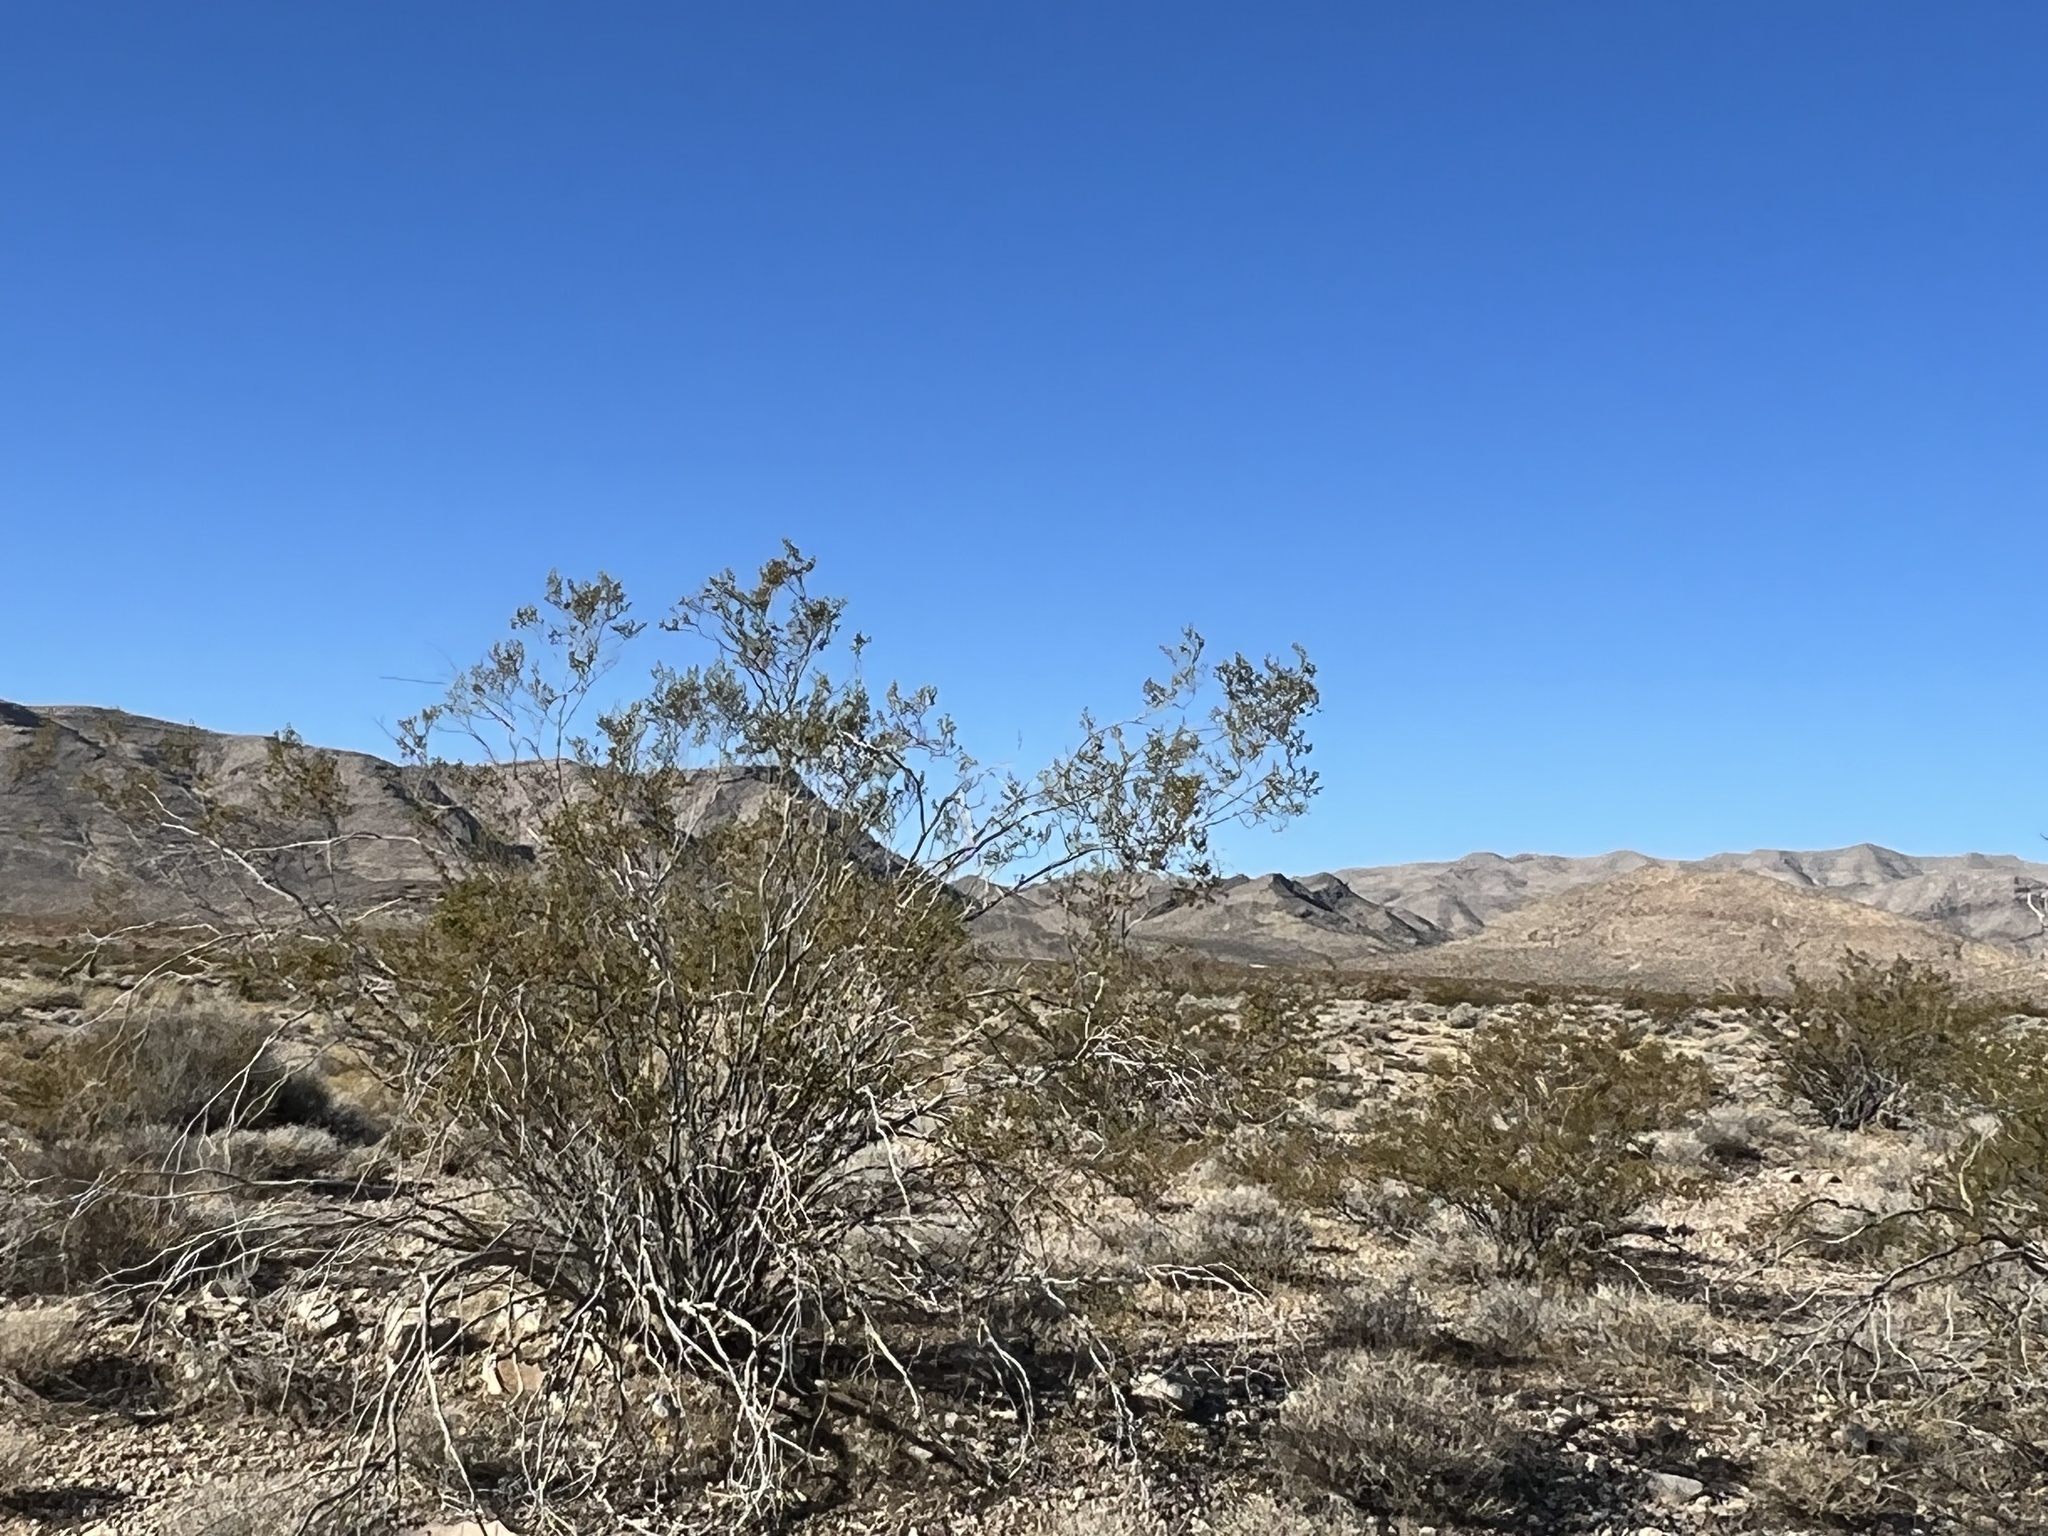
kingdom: Plantae
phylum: Tracheophyta
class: Magnoliopsida
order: Zygophyllales
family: Zygophyllaceae
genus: Larrea
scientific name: Larrea tridentata
